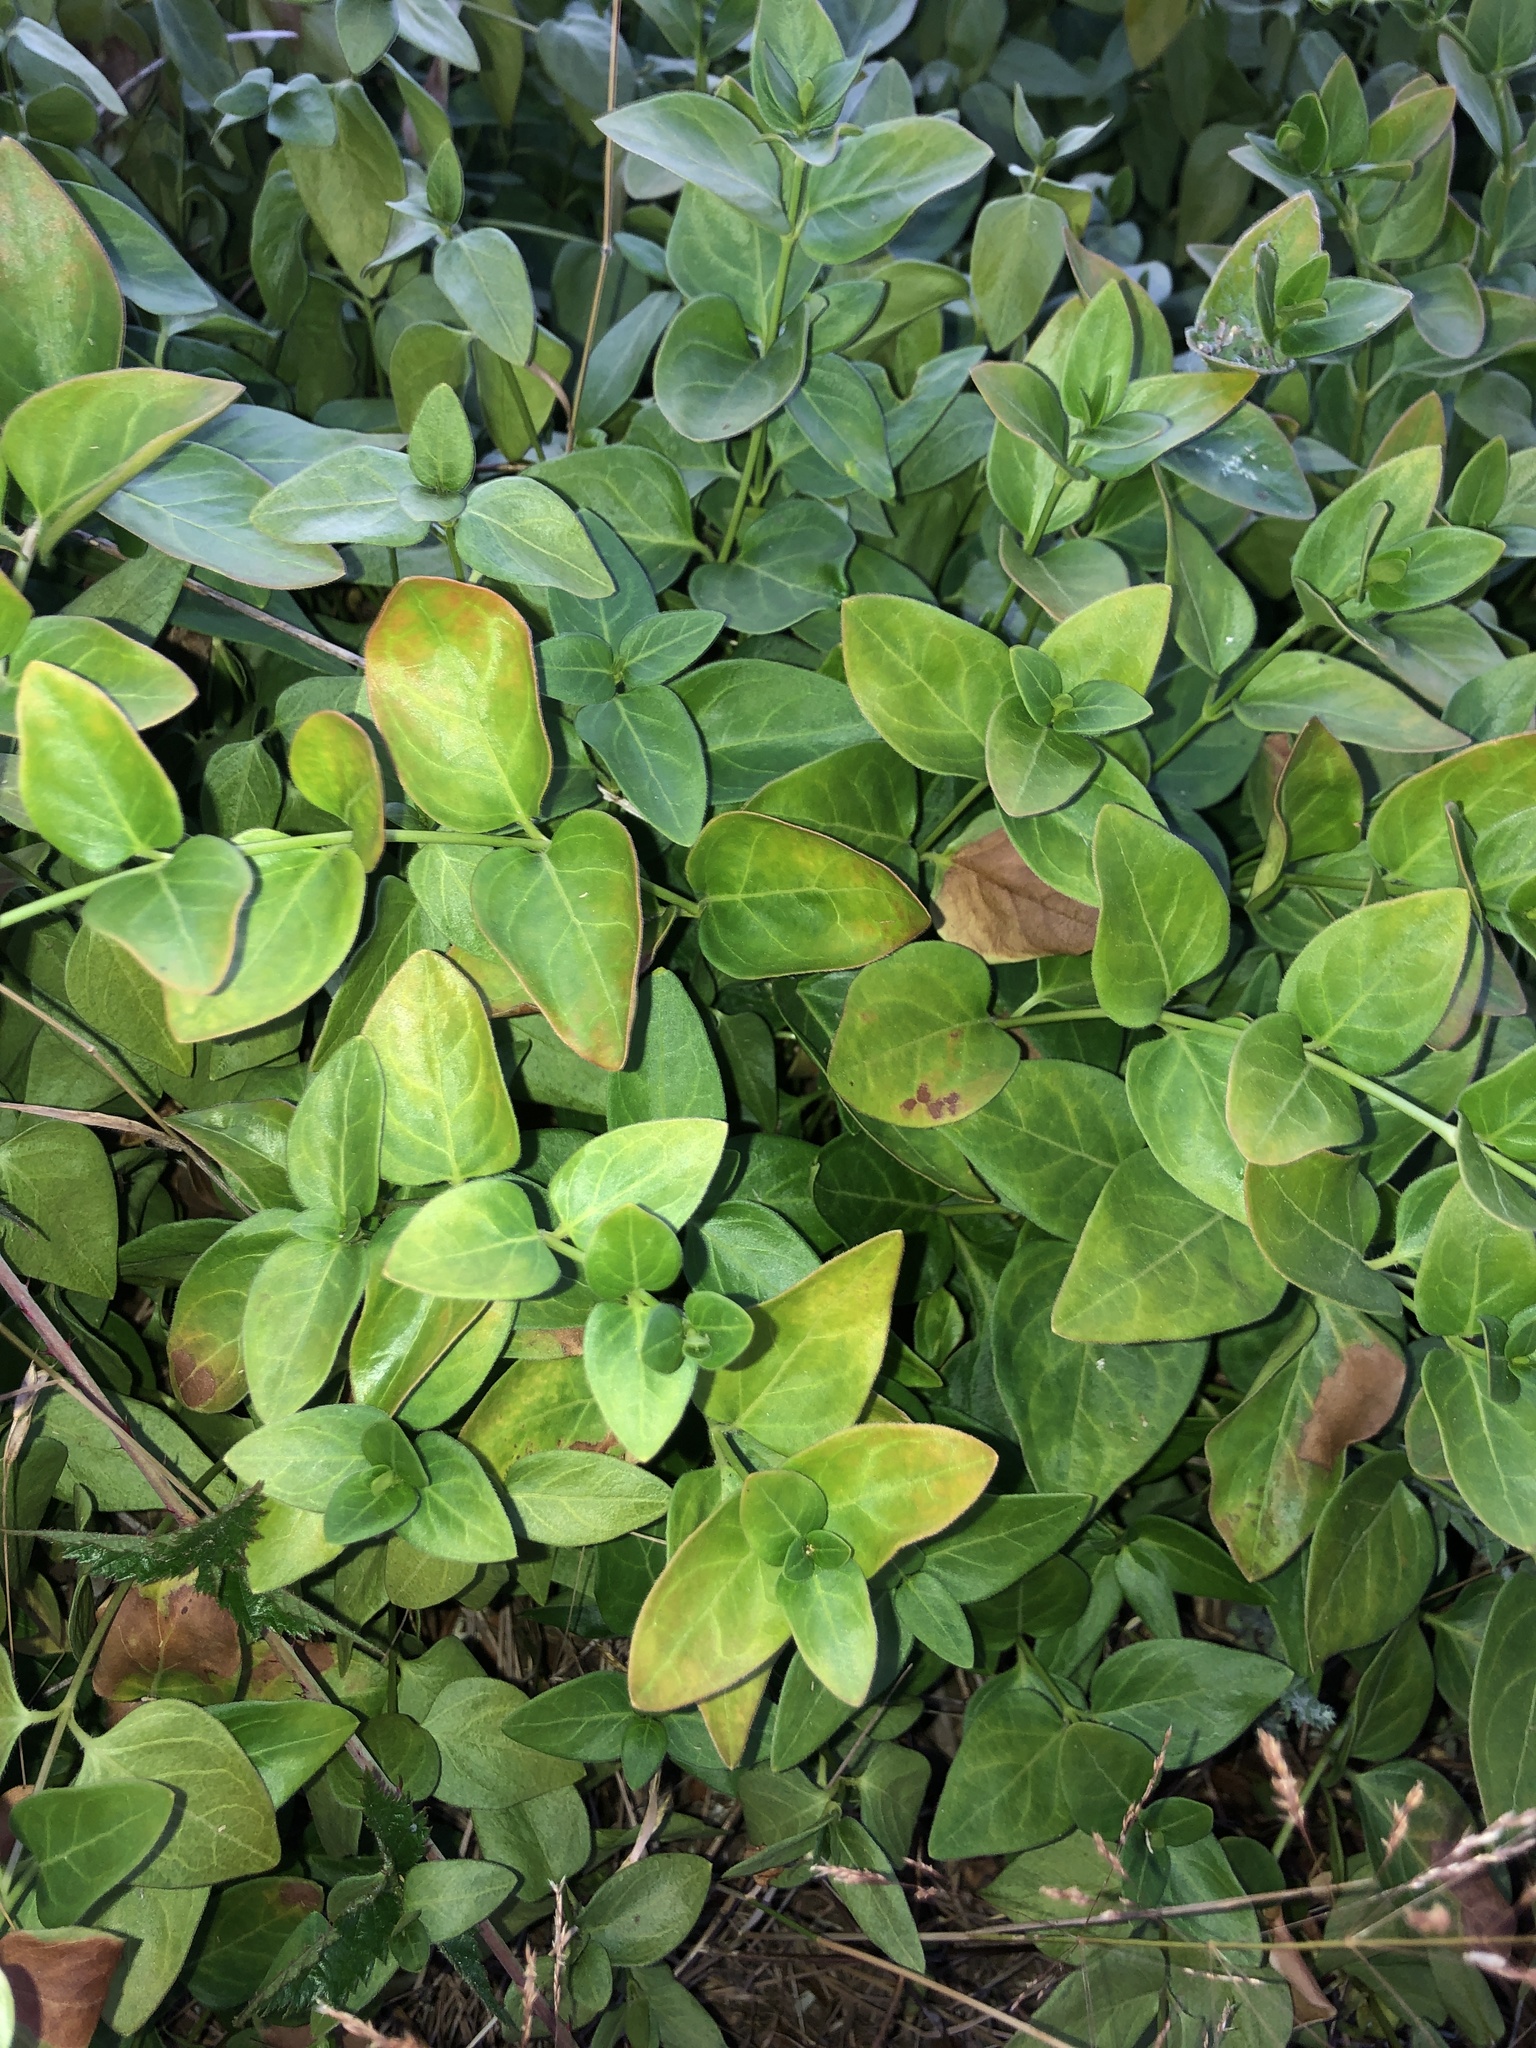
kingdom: Plantae
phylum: Tracheophyta
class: Magnoliopsida
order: Gentianales
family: Apocynaceae
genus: Vinca
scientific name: Vinca major
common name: Greater periwinkle
